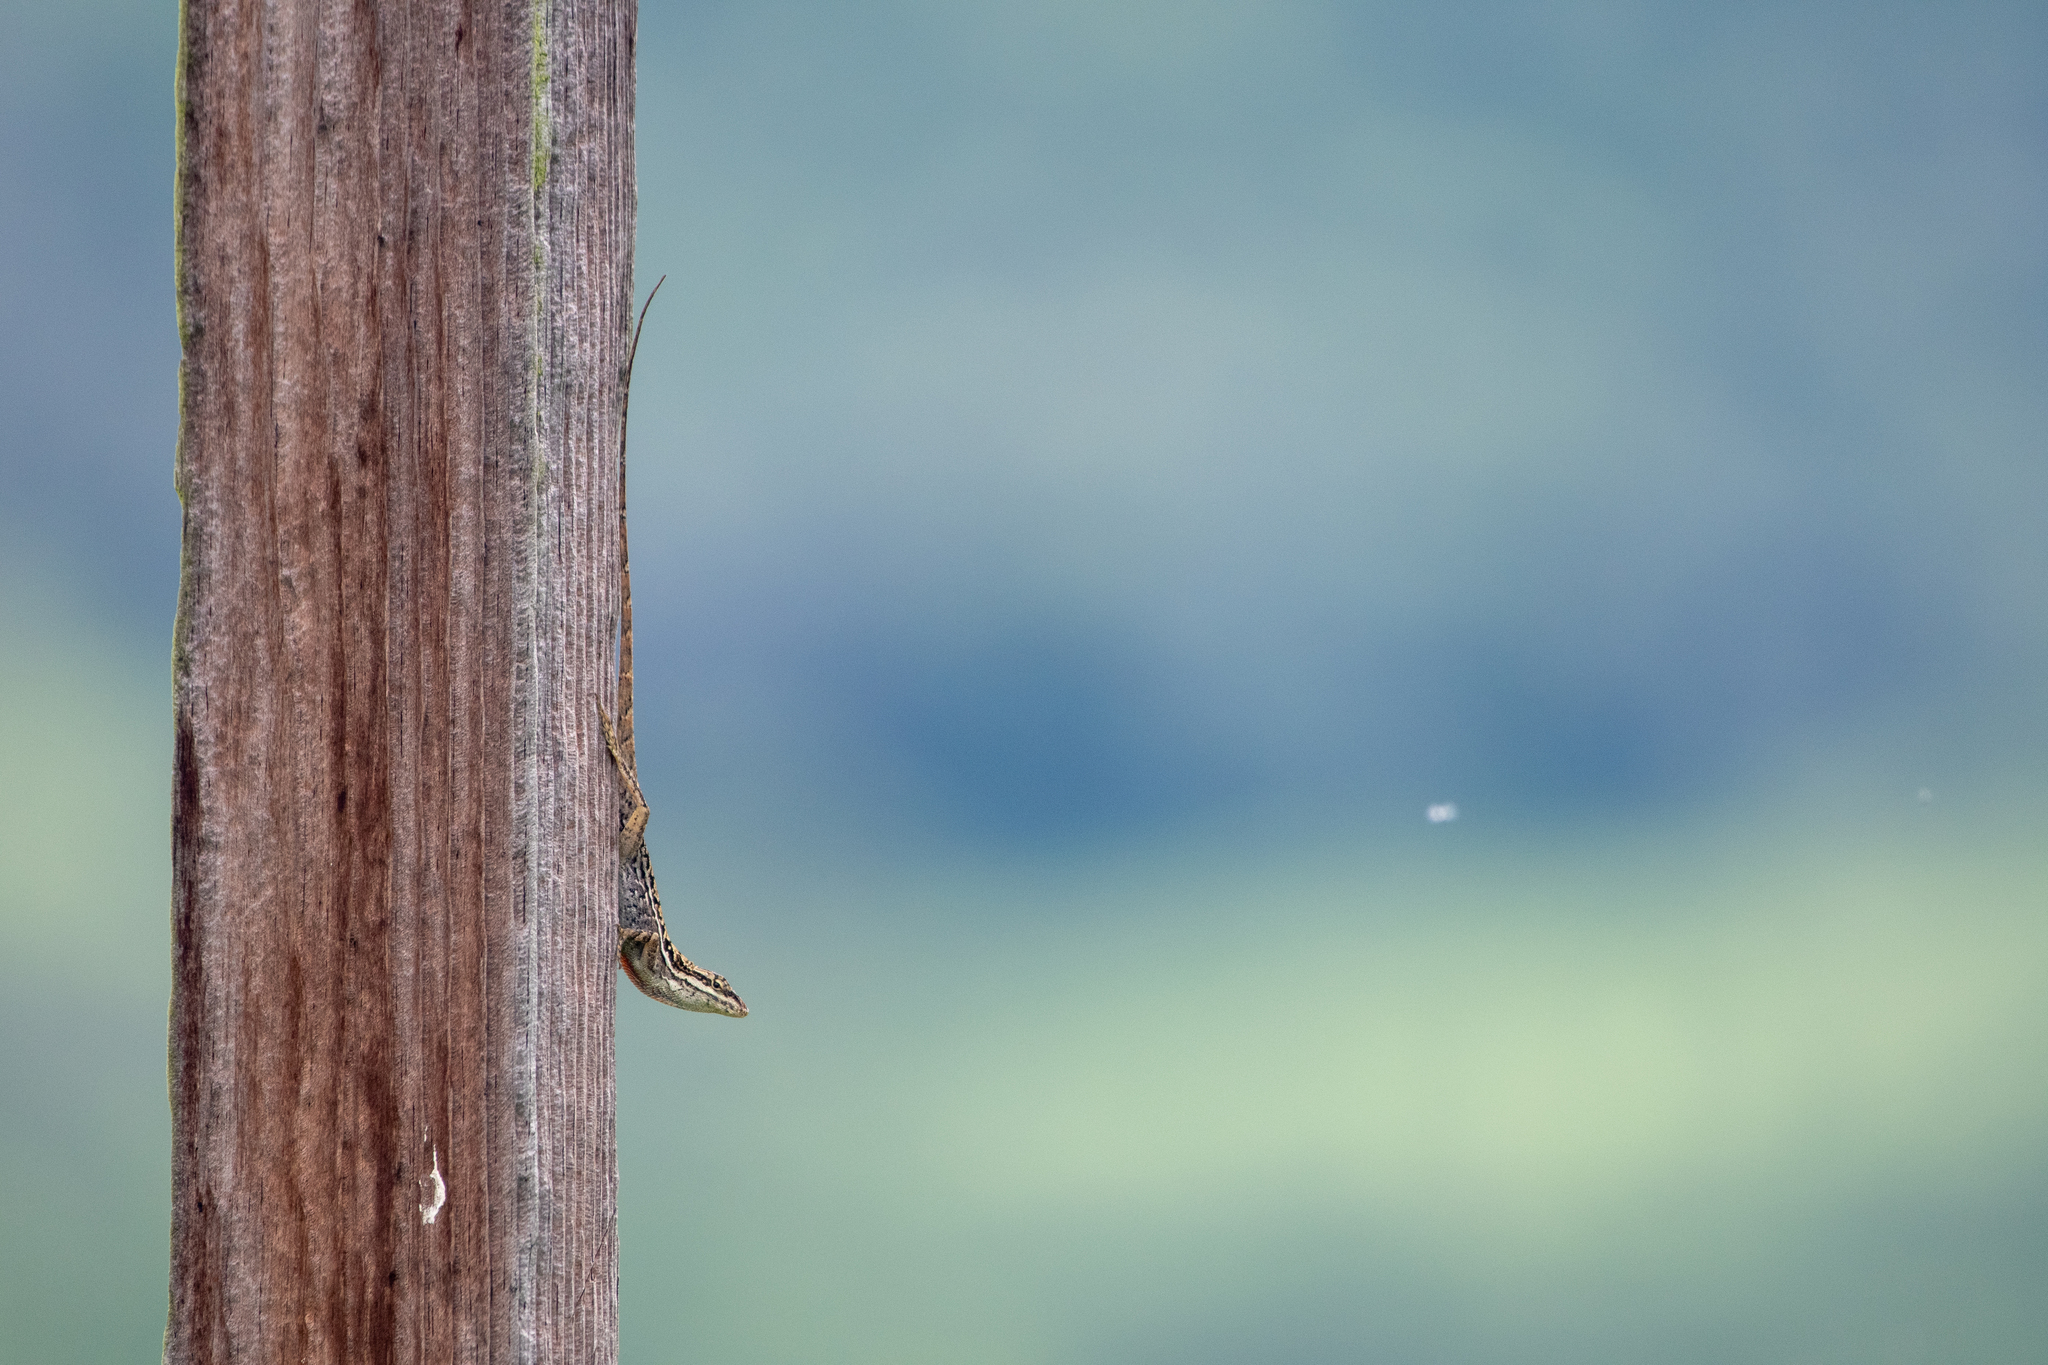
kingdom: Animalia
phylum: Chordata
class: Squamata
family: Dactyloidae
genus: Anolis
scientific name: Anolis caceresae
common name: Berta’s anole
